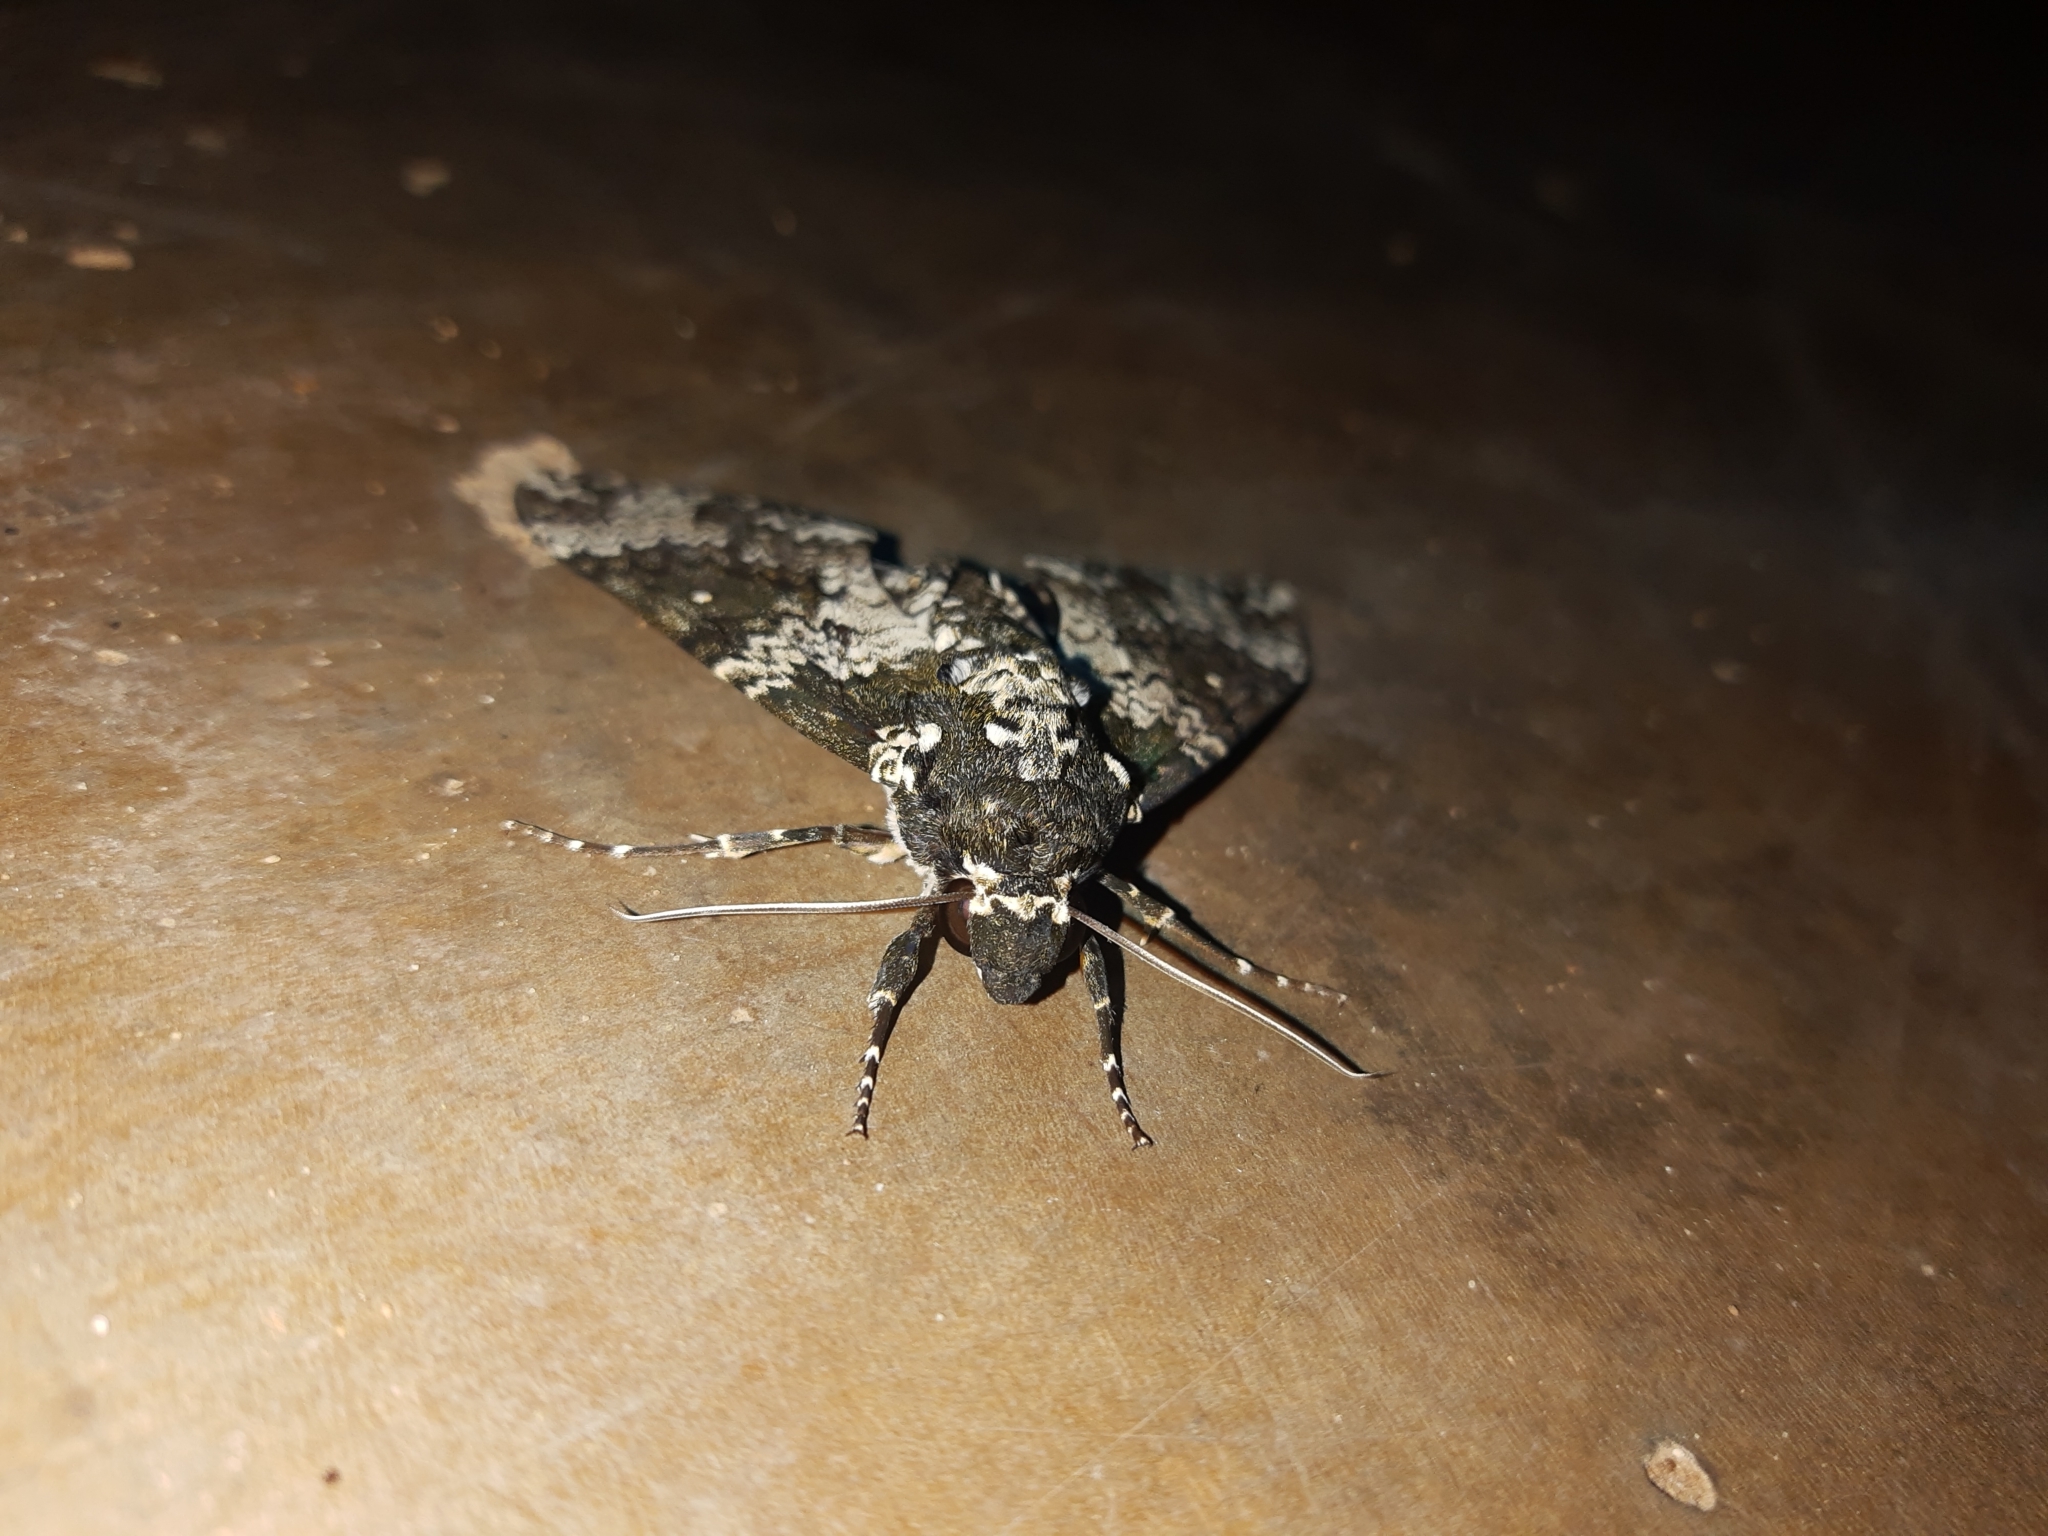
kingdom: Animalia
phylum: Arthropoda
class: Insecta
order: Lepidoptera
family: Sphingidae
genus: Manduca
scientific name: Manduca rustica
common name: Rustic sphinx
